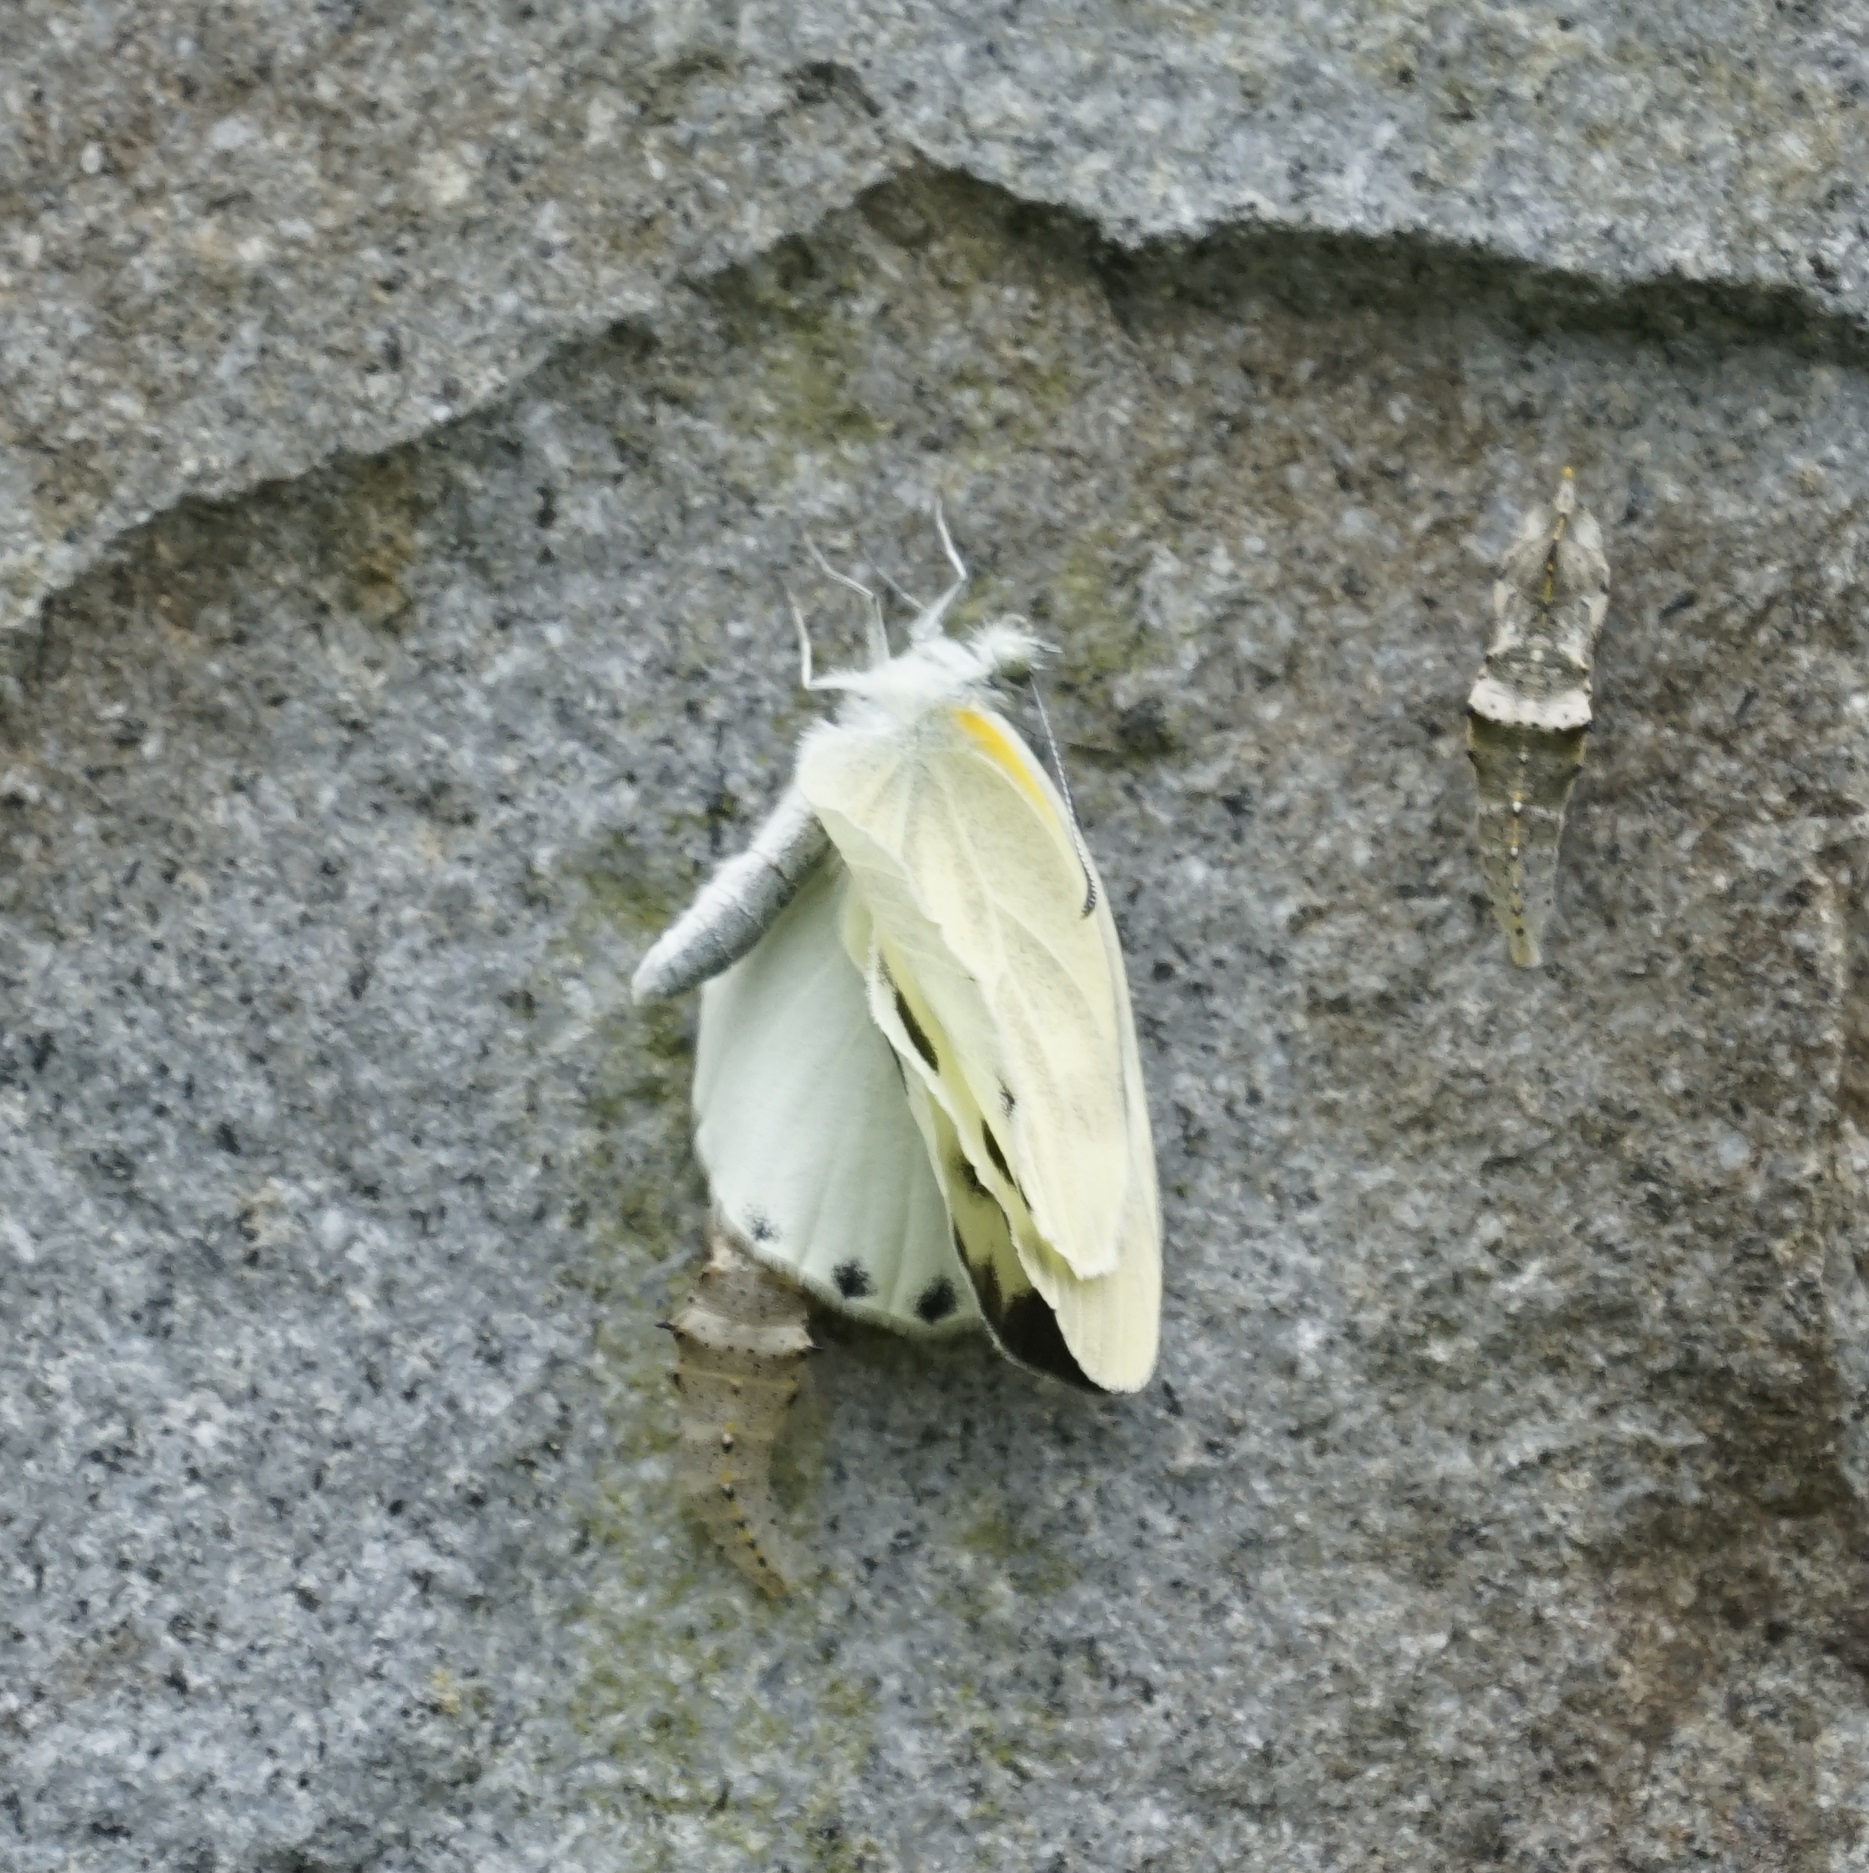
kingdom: Animalia
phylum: Arthropoda
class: Insecta
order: Lepidoptera
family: Pieridae
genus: Pieris
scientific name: Pieris canidia
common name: Indian cabbage white
